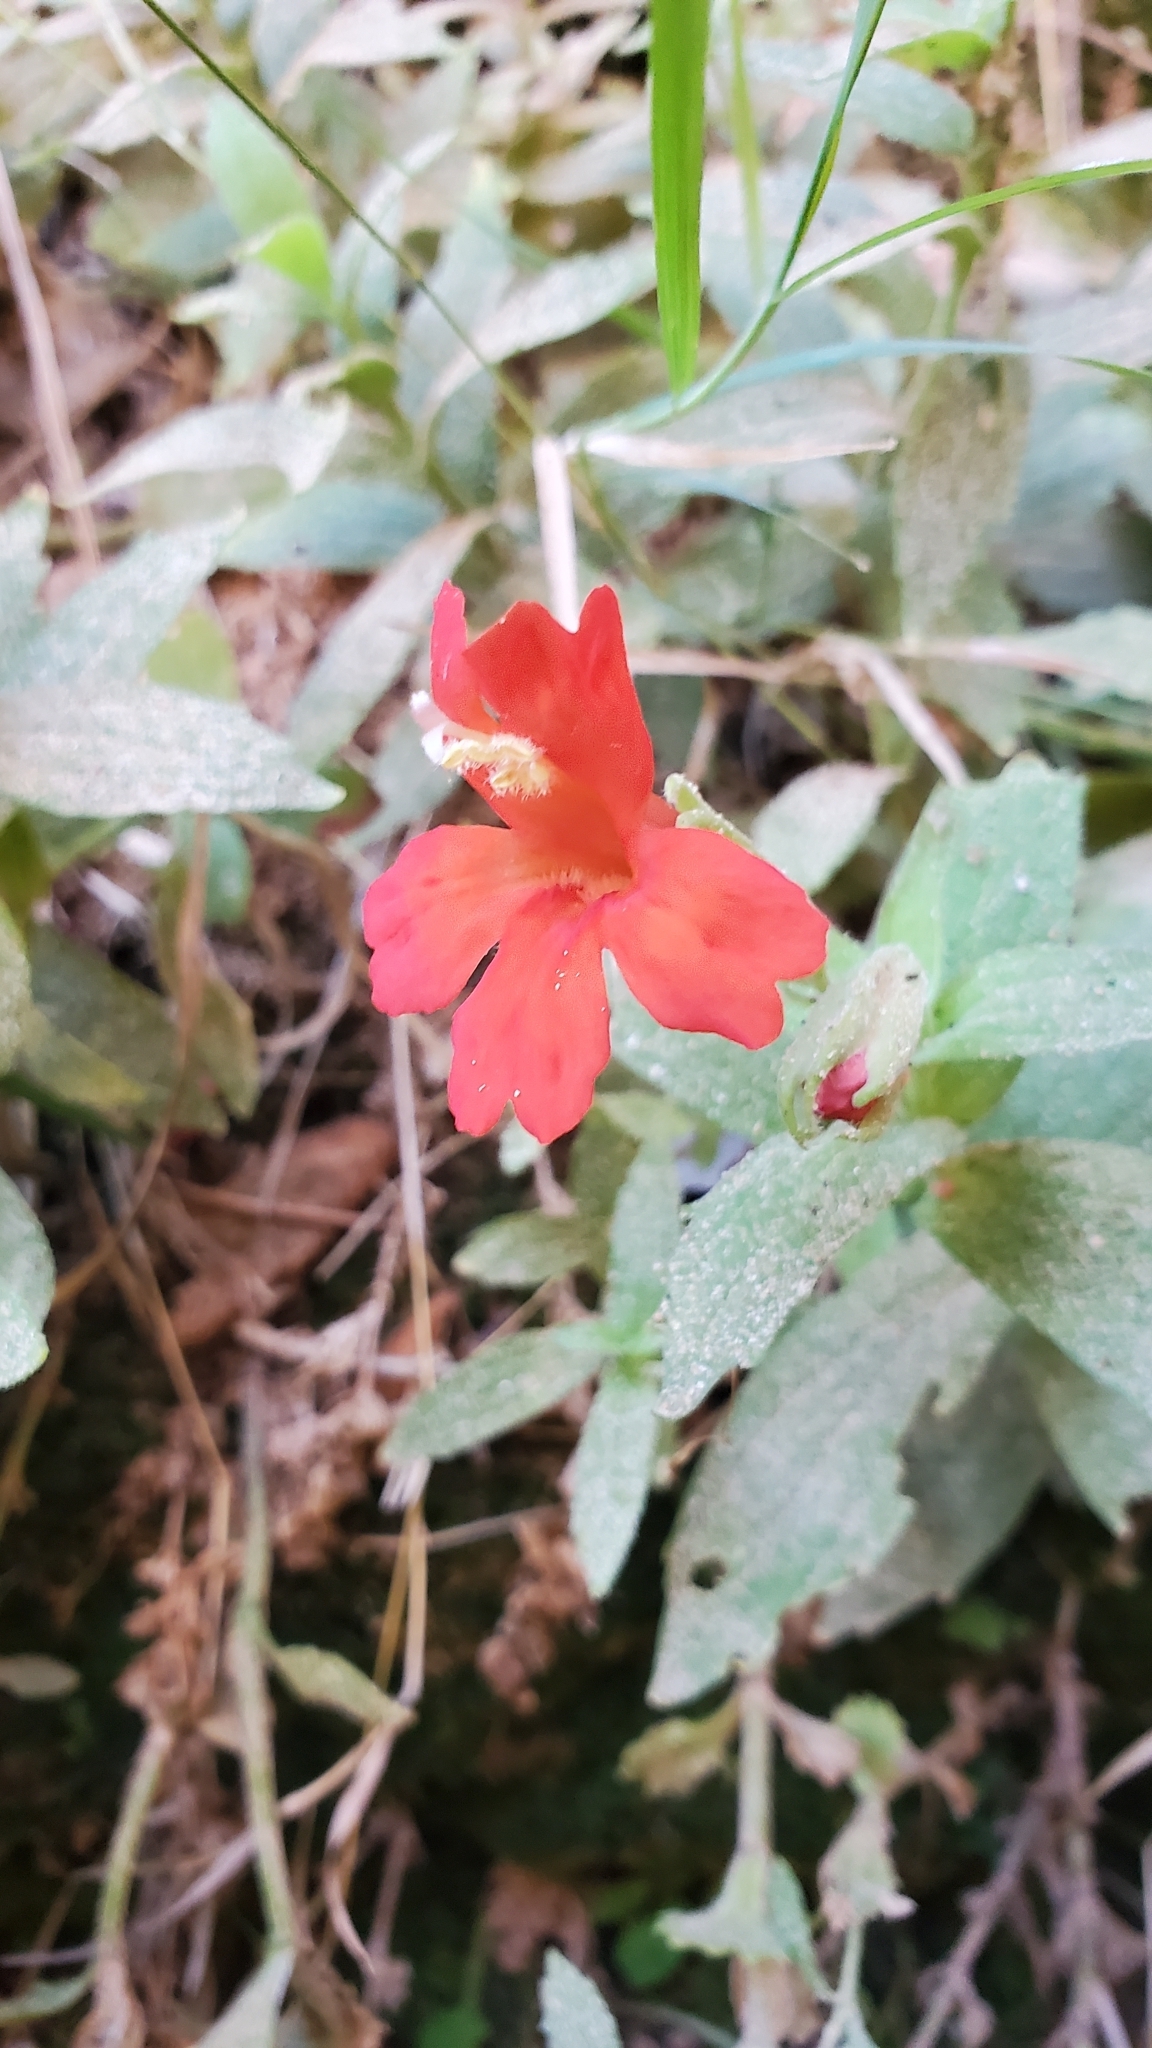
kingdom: Plantae
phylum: Tracheophyta
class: Magnoliopsida
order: Lamiales
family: Phrymaceae
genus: Erythranthe
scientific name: Erythranthe eastwoodiae
